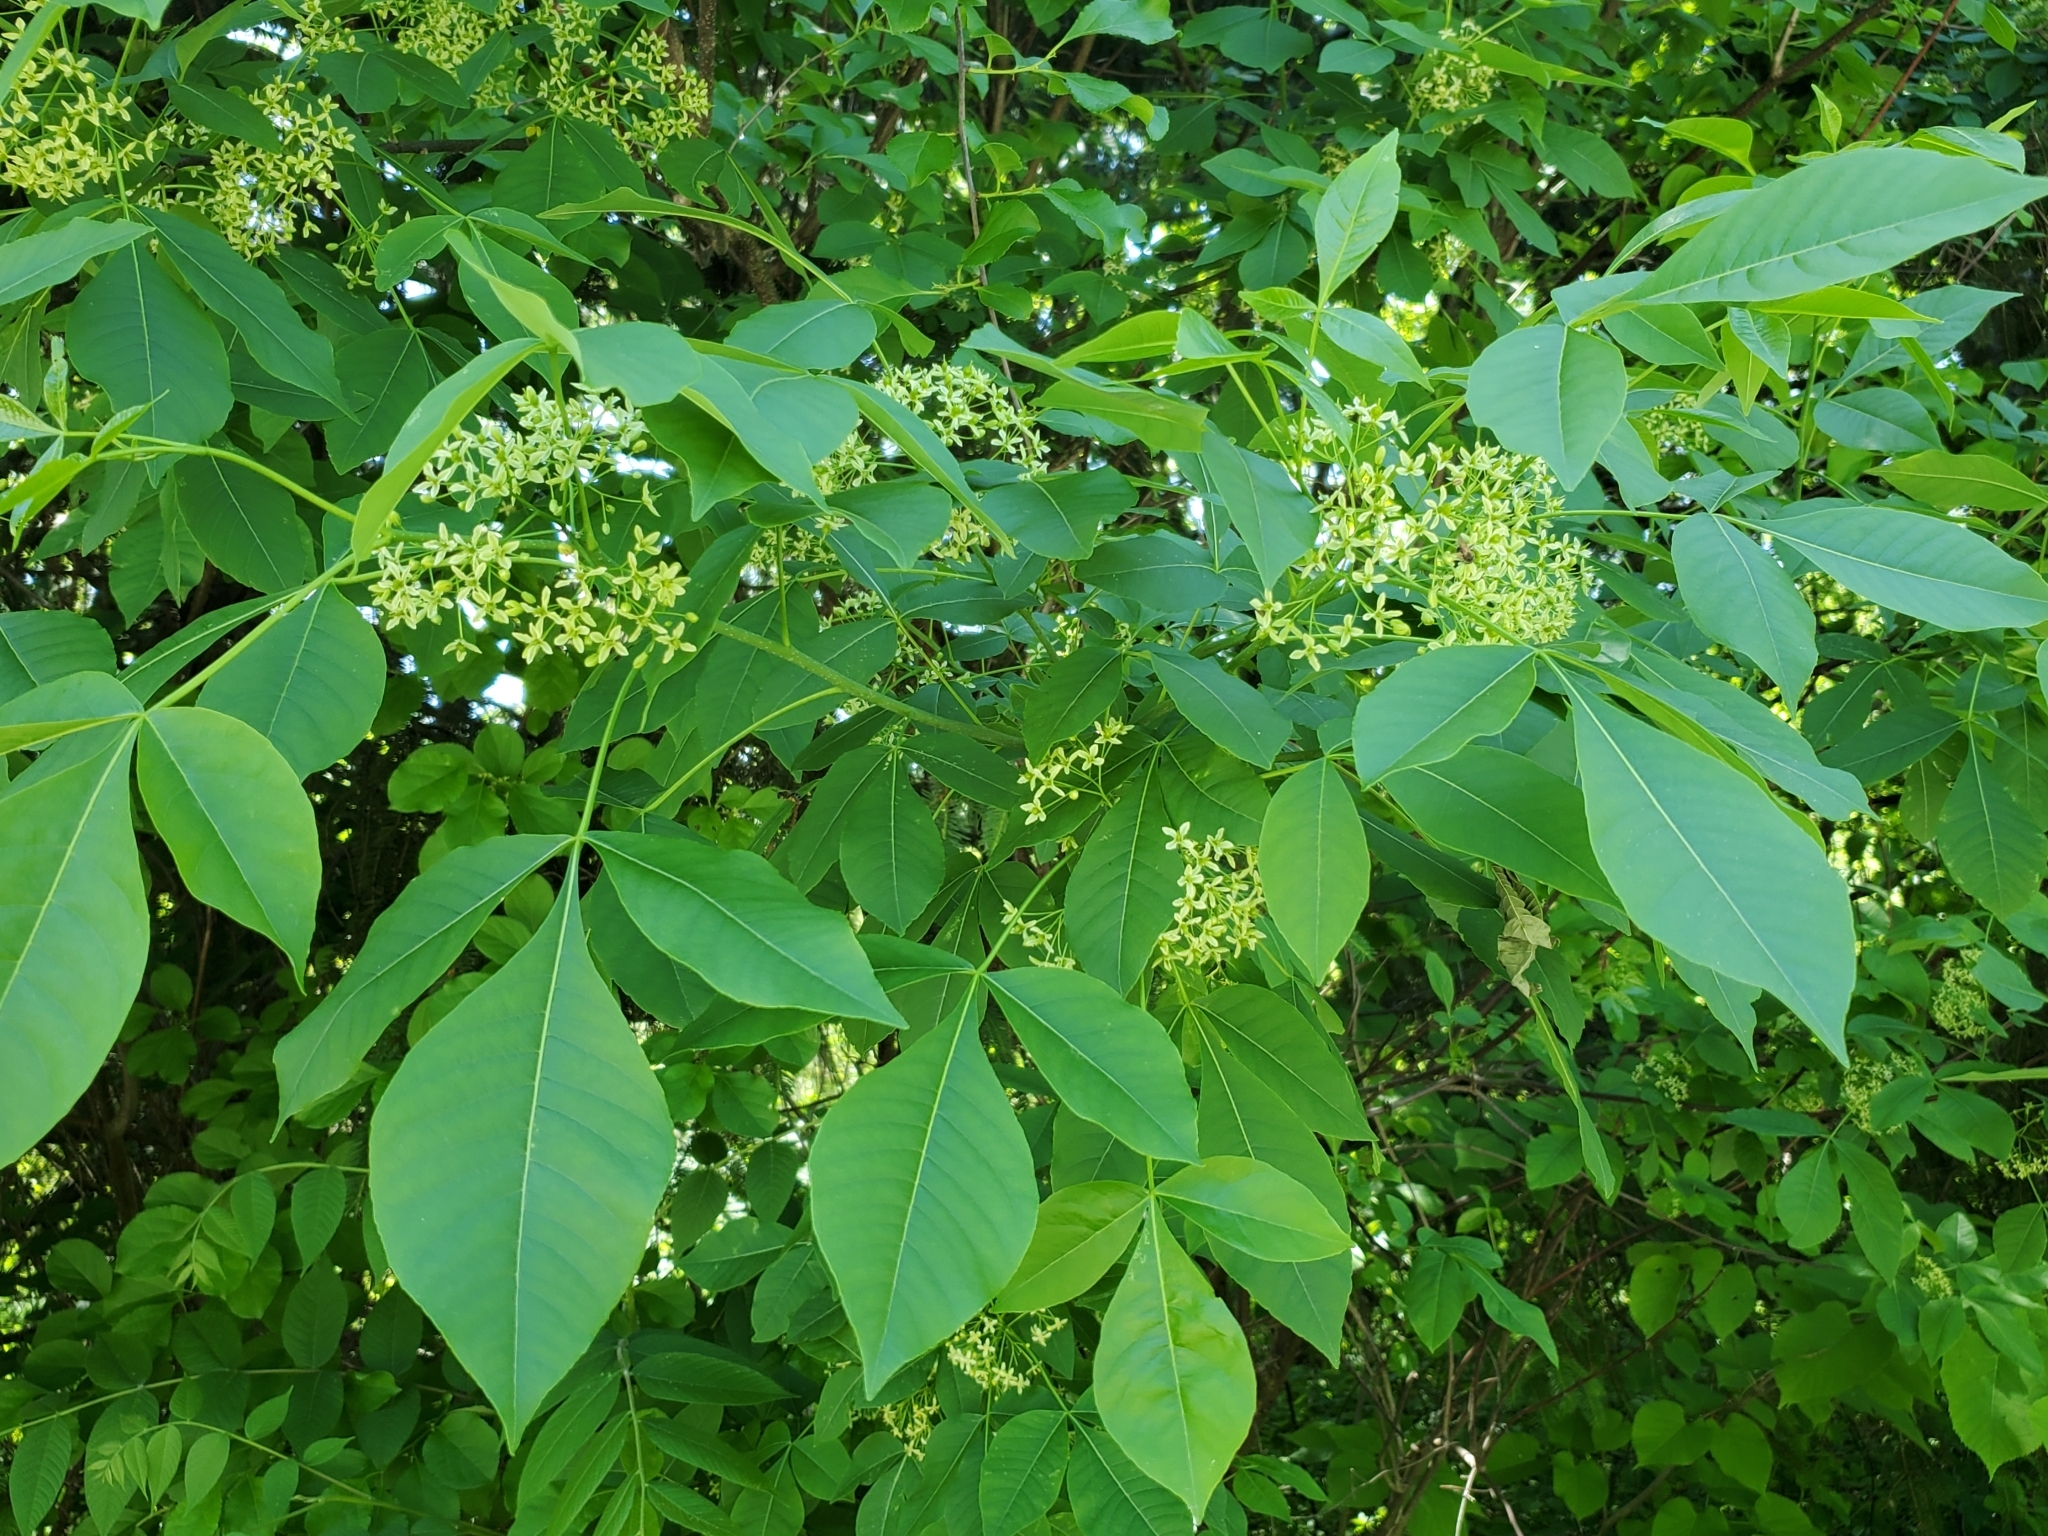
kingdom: Plantae
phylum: Tracheophyta
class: Magnoliopsida
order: Sapindales
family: Rutaceae
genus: Ptelea
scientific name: Ptelea trifoliata
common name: Common hop-tree
